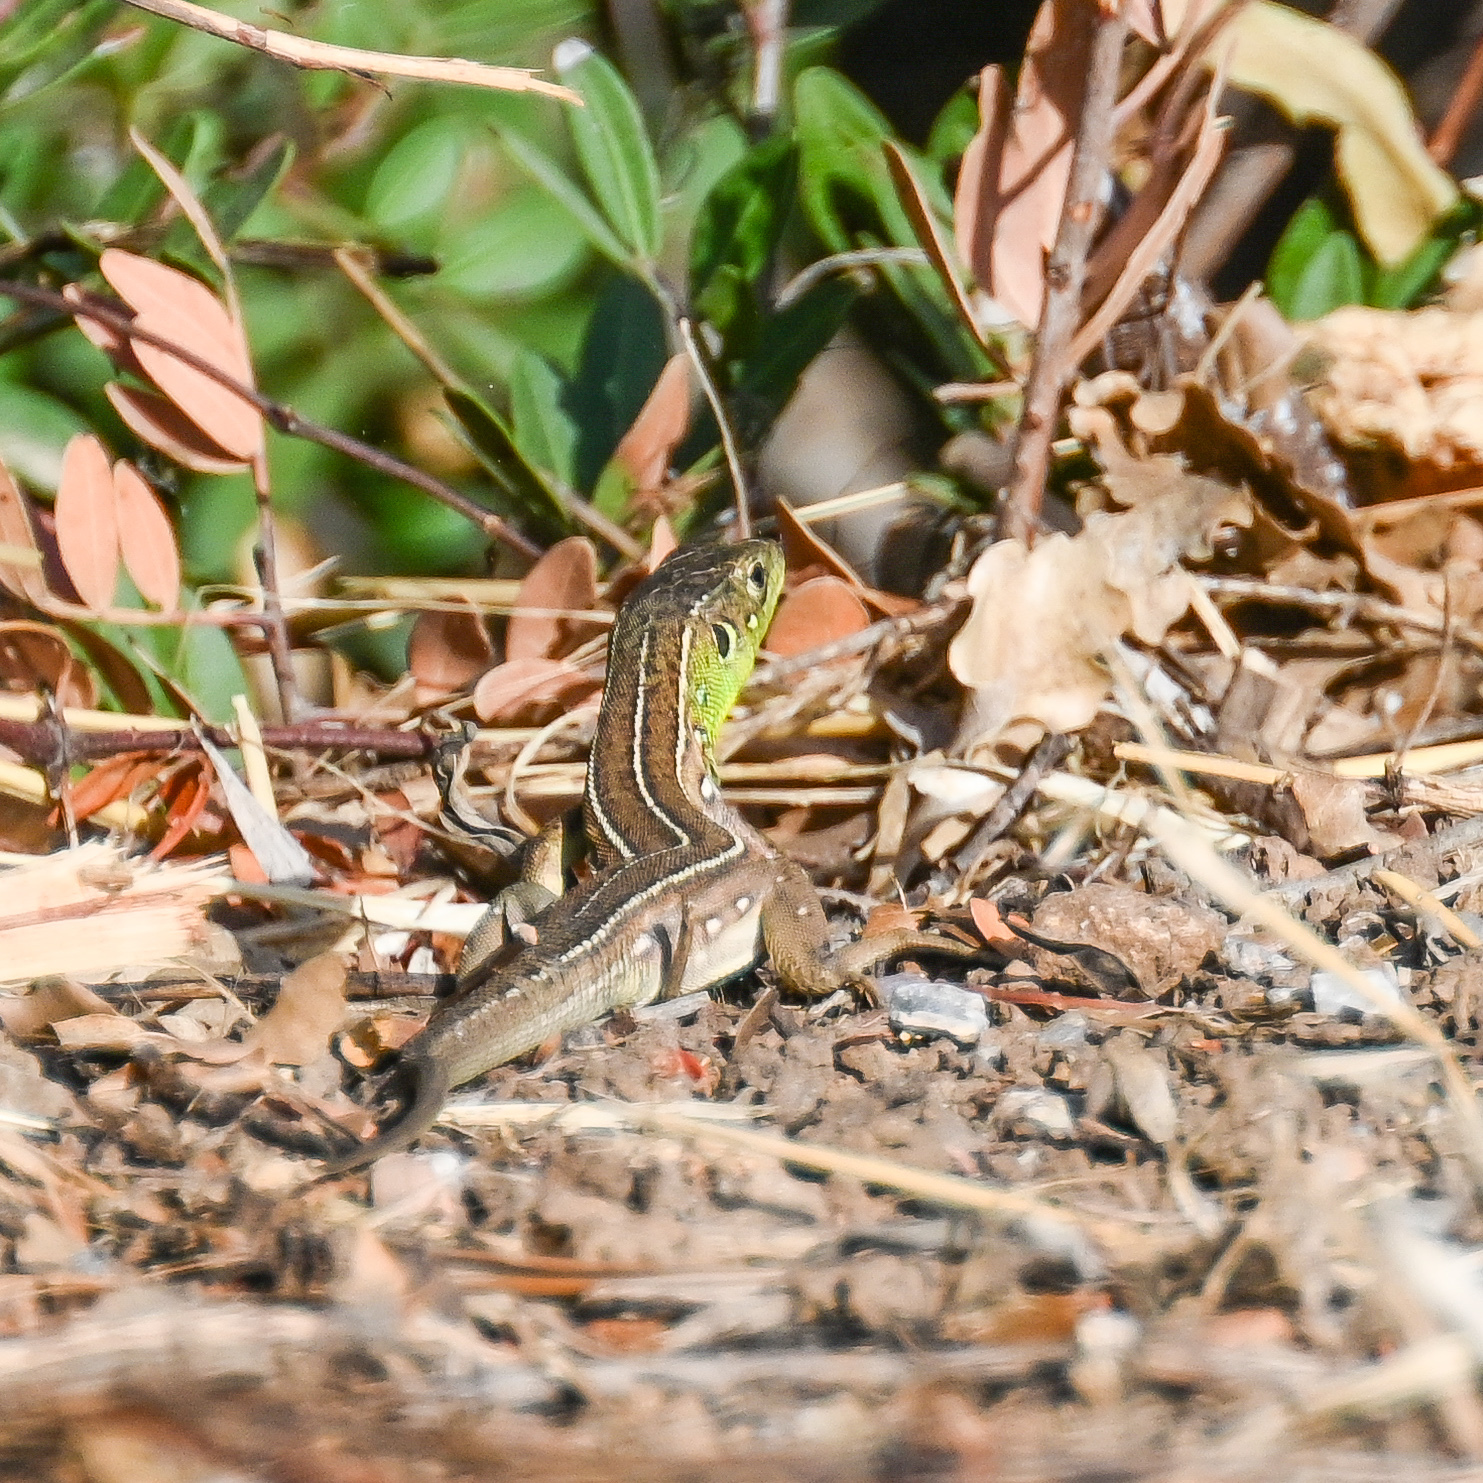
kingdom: Animalia
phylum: Chordata
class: Squamata
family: Lacertidae
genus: Lacerta
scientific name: Lacerta trilineata
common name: Balkan green lizard
